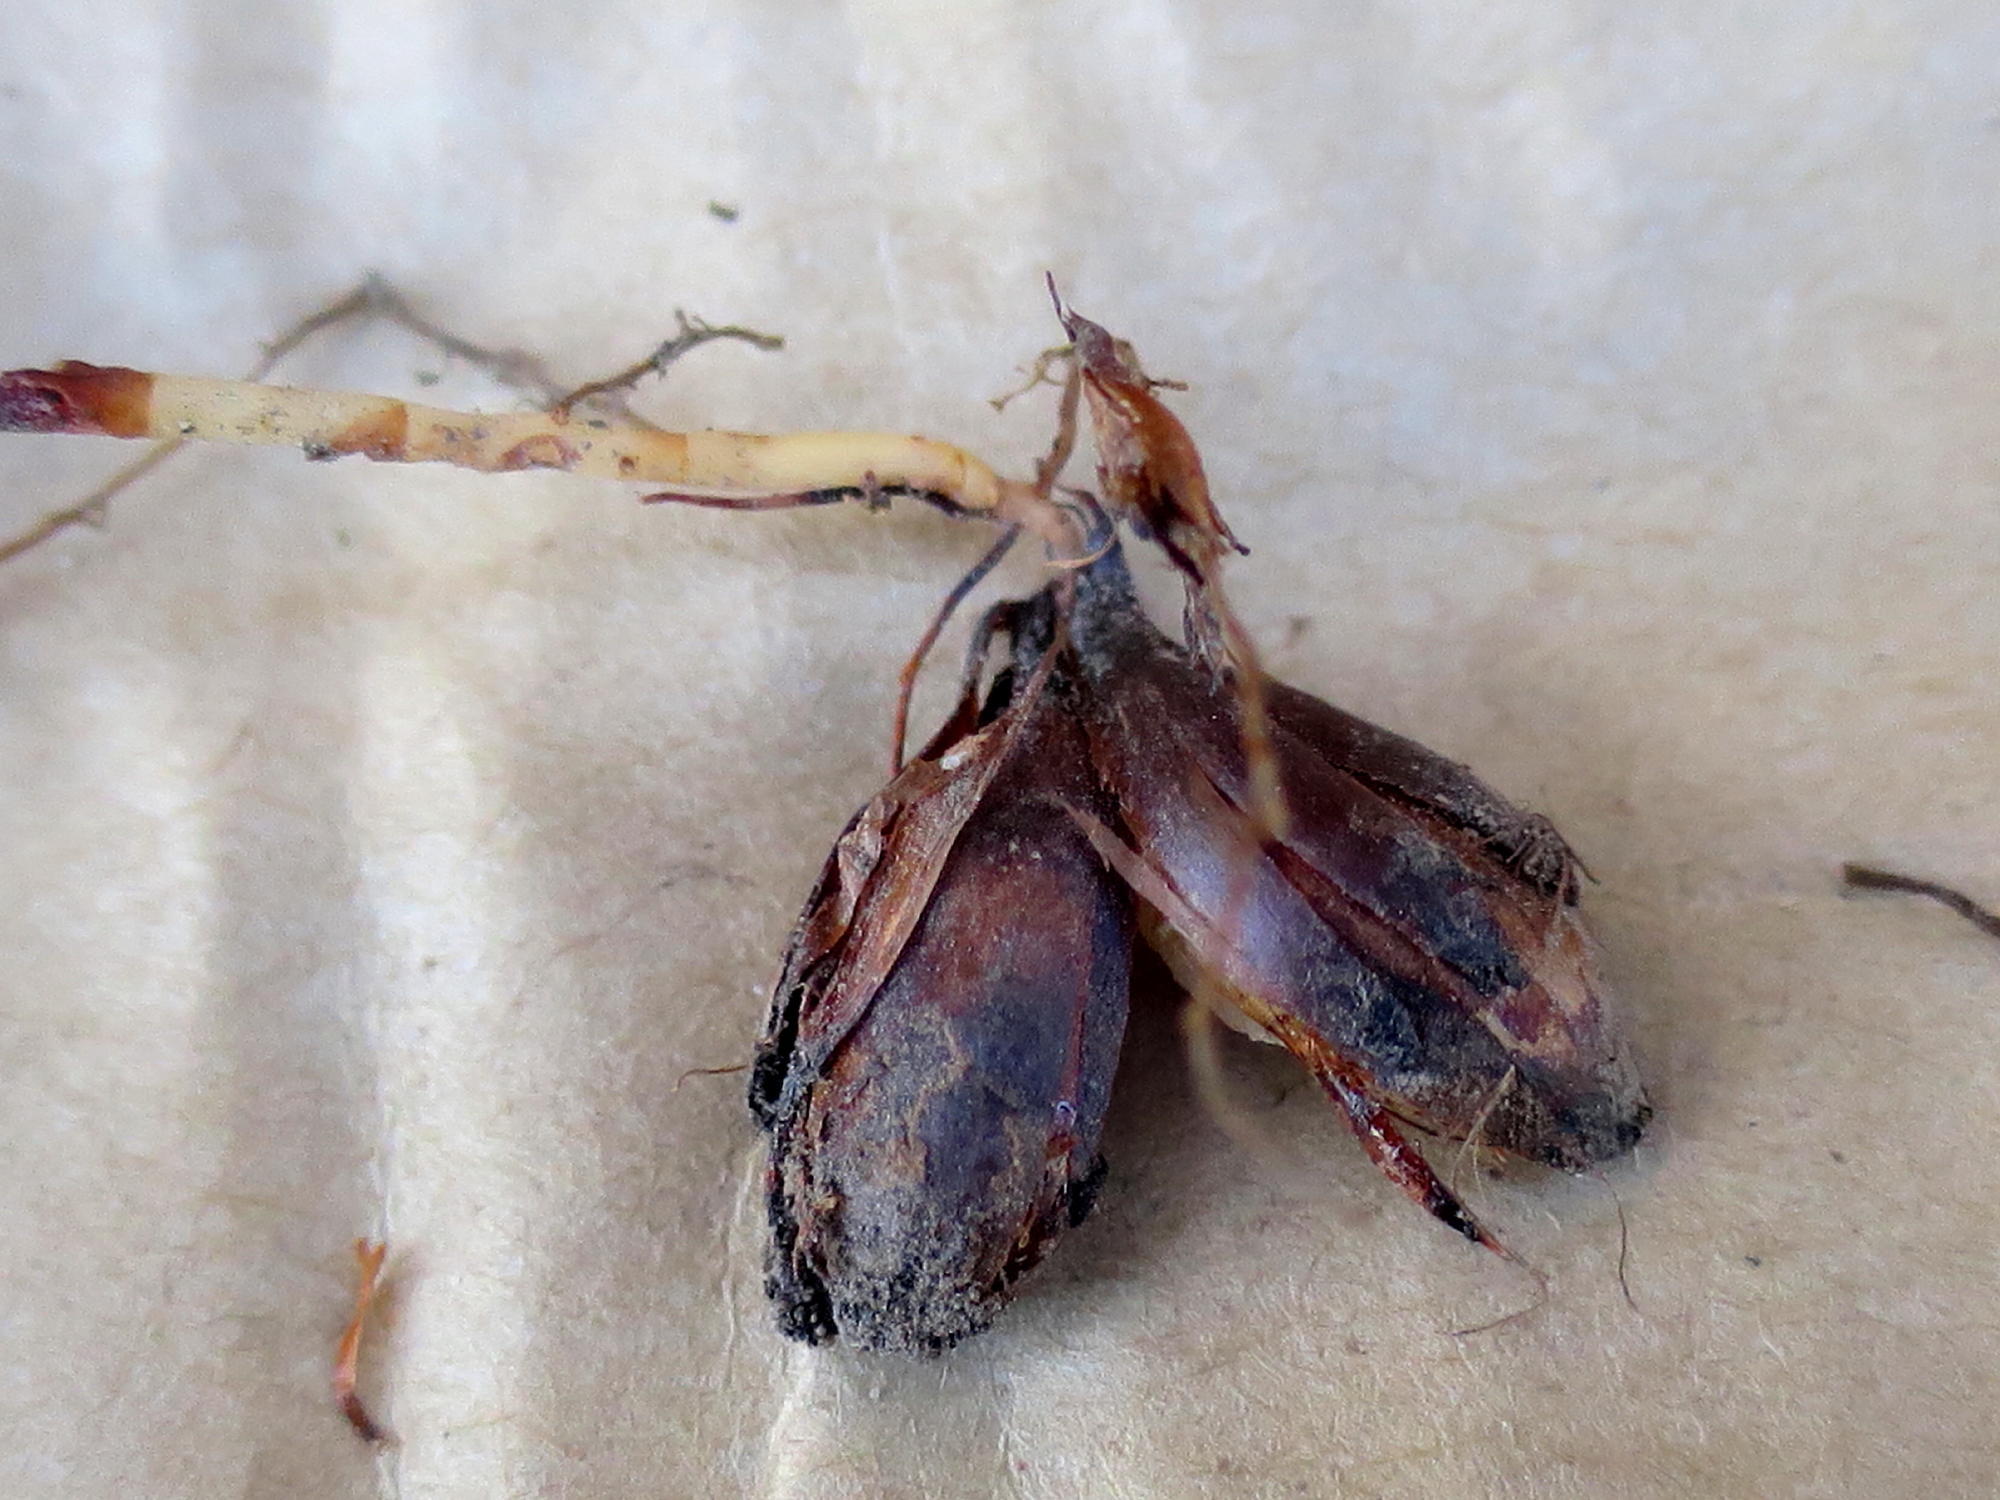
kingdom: Plantae
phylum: Tracheophyta
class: Magnoliopsida
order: Oxalidales
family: Oxalidaceae
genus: Oxalis
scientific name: Oxalis polyphylla
